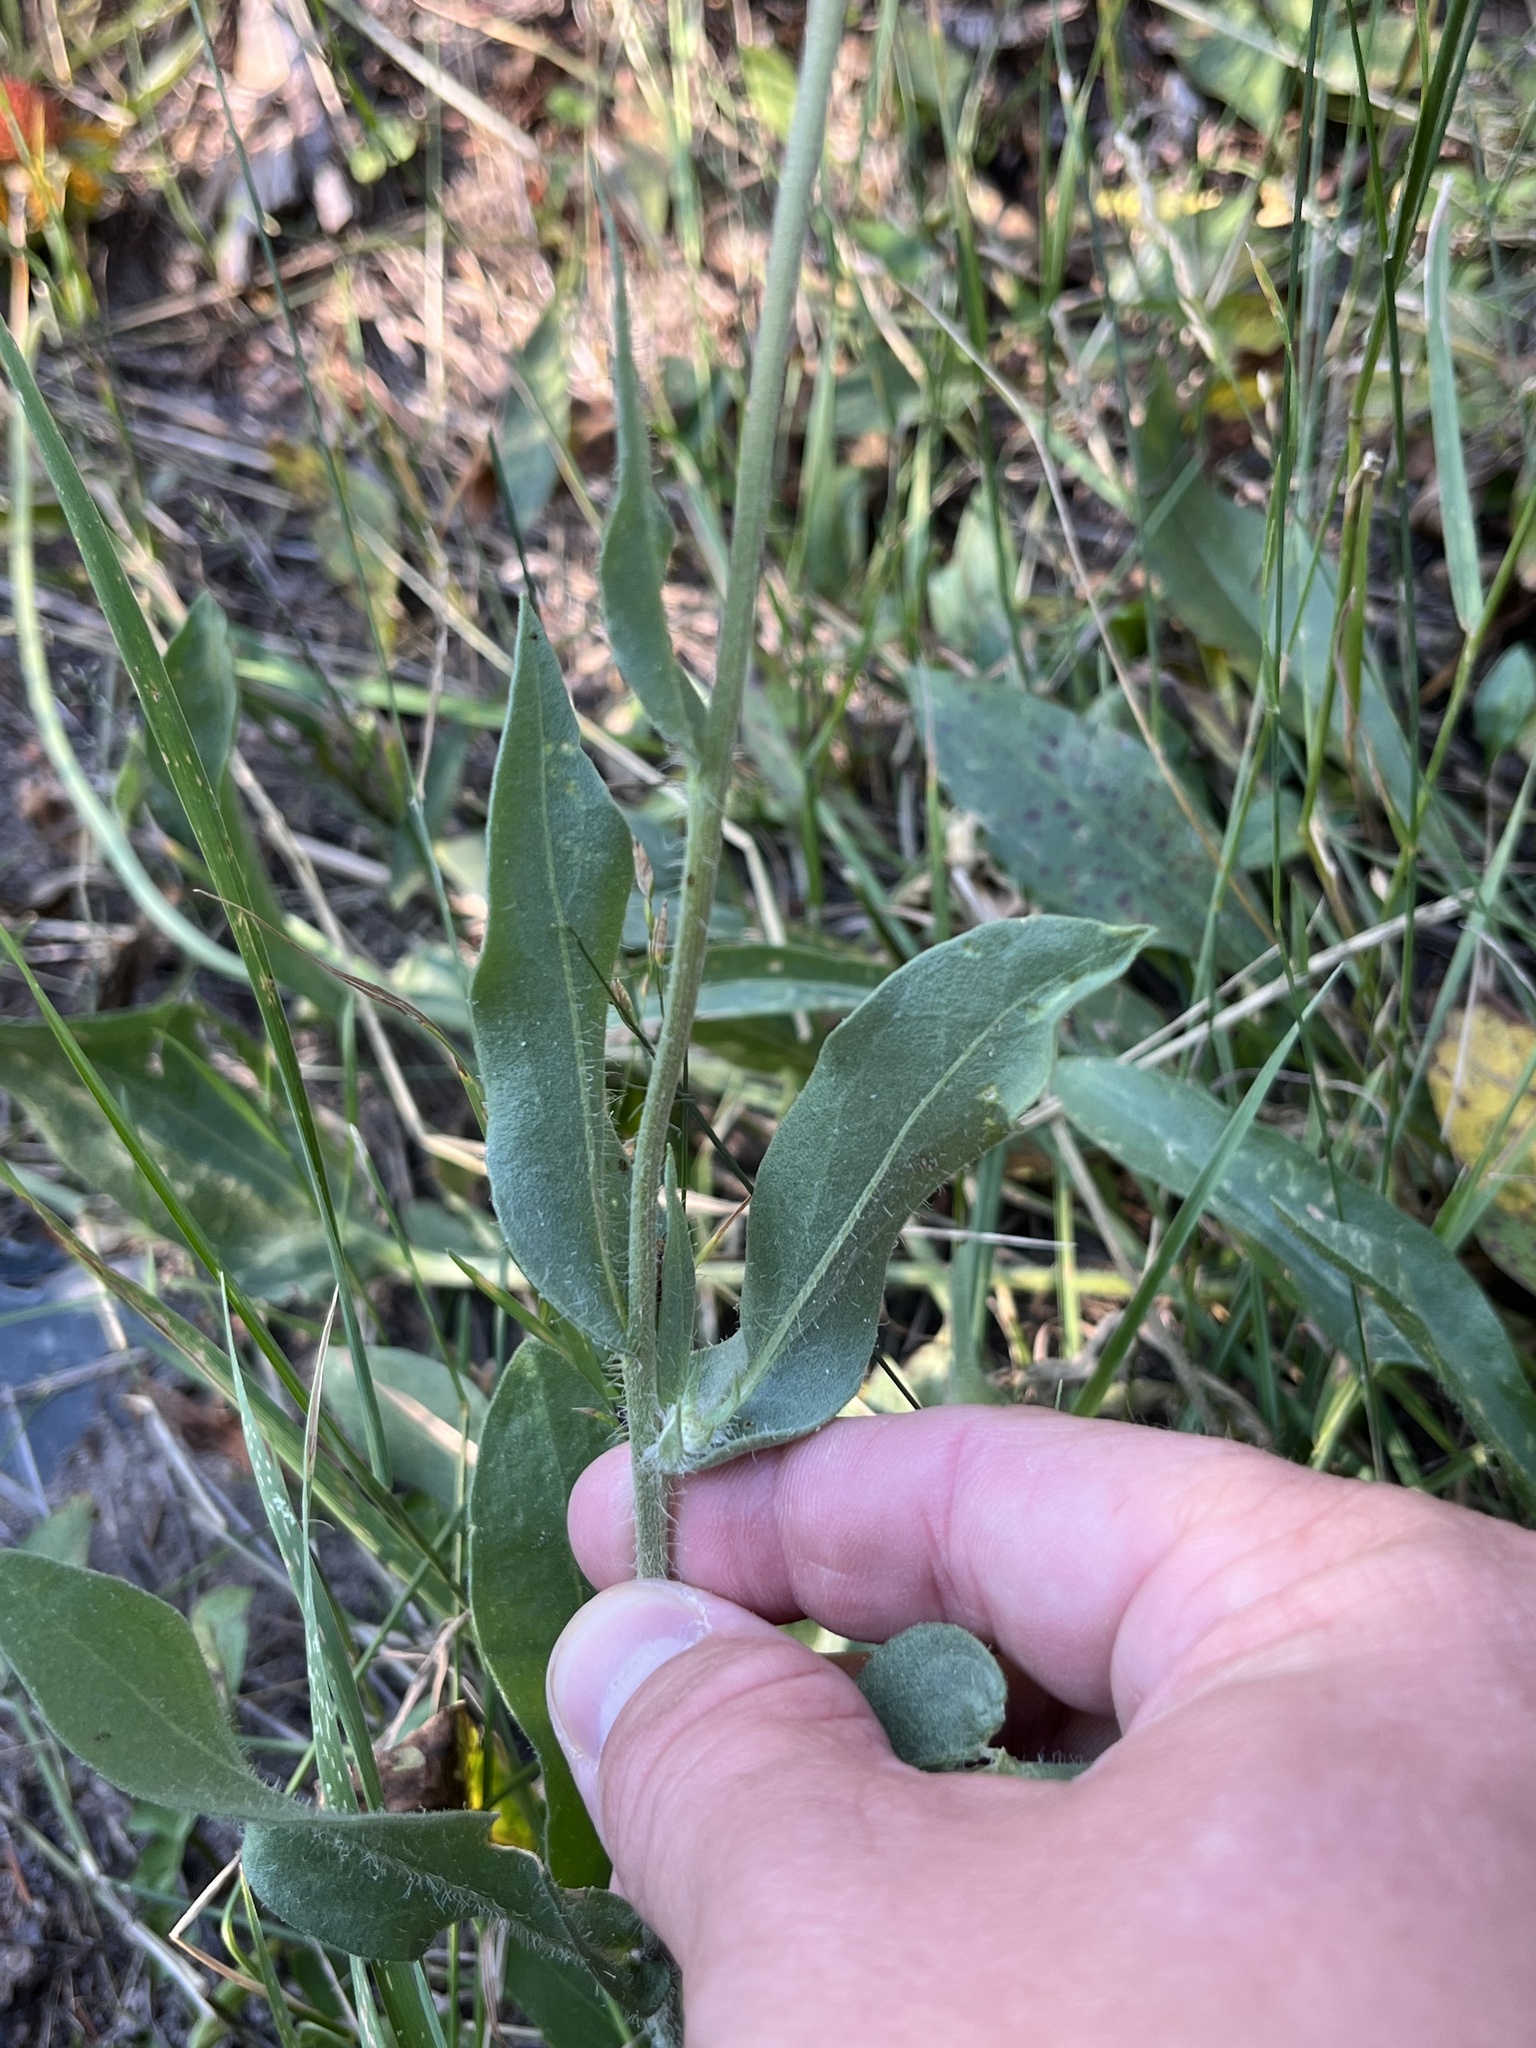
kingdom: Plantae
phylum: Tracheophyta
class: Magnoliopsida
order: Asterales
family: Asteraceae
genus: Gaillardia
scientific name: Gaillardia aristata
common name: Blanket-flower
